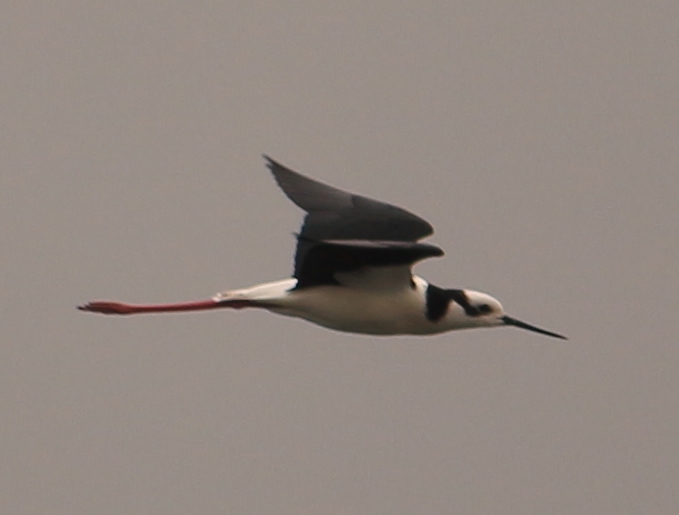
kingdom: Animalia
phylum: Chordata
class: Aves
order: Charadriiformes
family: Recurvirostridae
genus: Himantopus
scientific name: Himantopus mexicanus
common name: Black-necked stilt
